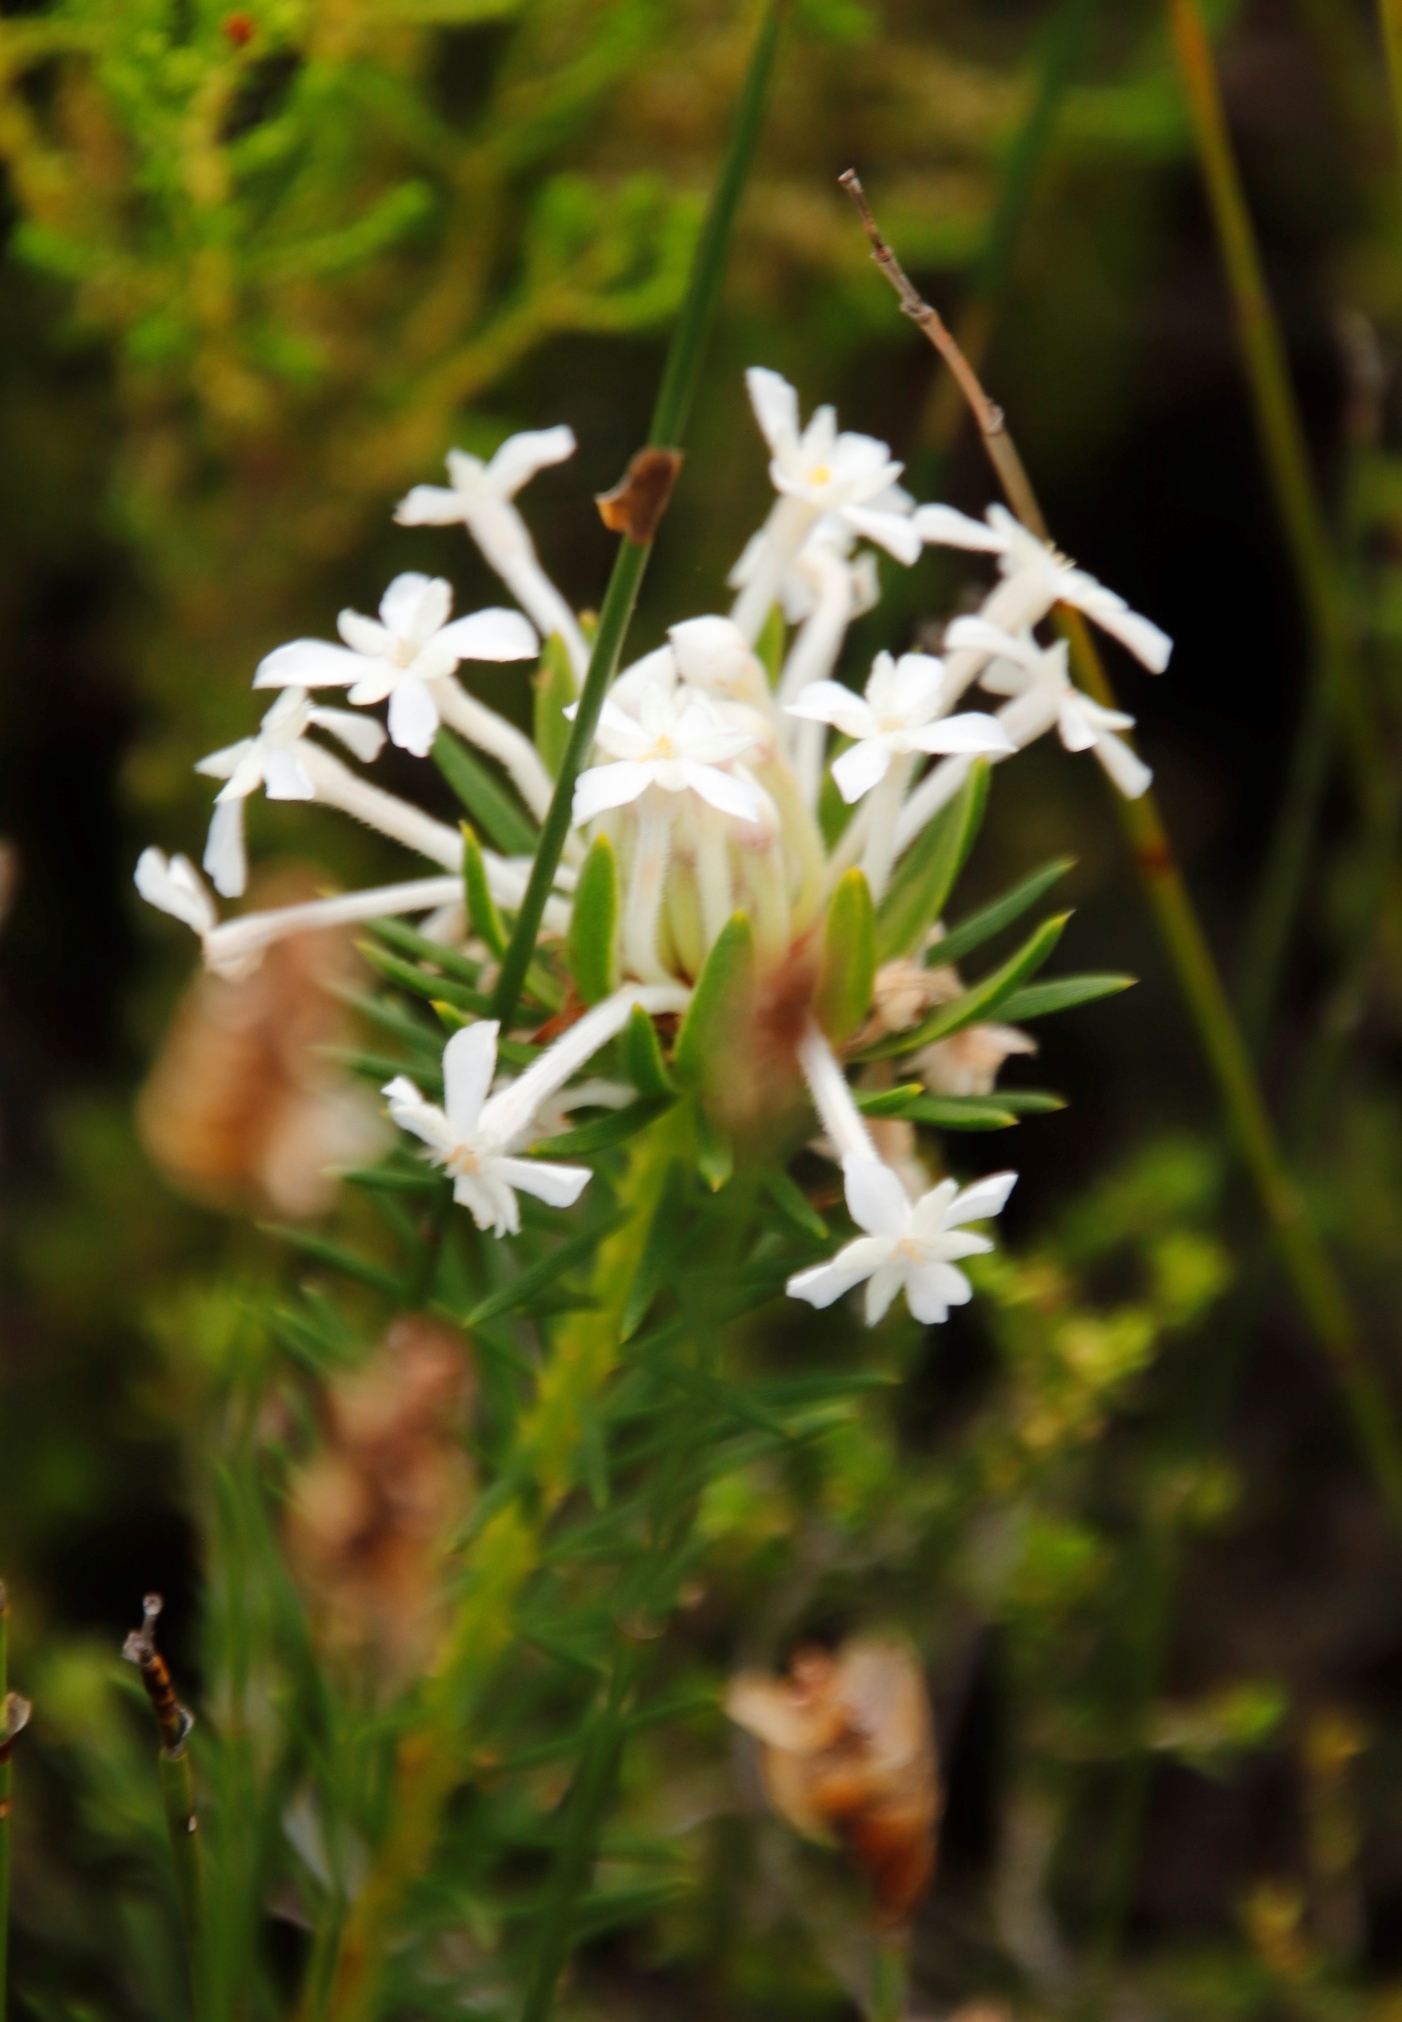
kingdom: Plantae
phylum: Tracheophyta
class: Magnoliopsida
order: Malvales
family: Thymelaeaceae
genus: Gnidia
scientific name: Gnidia pinifolia
